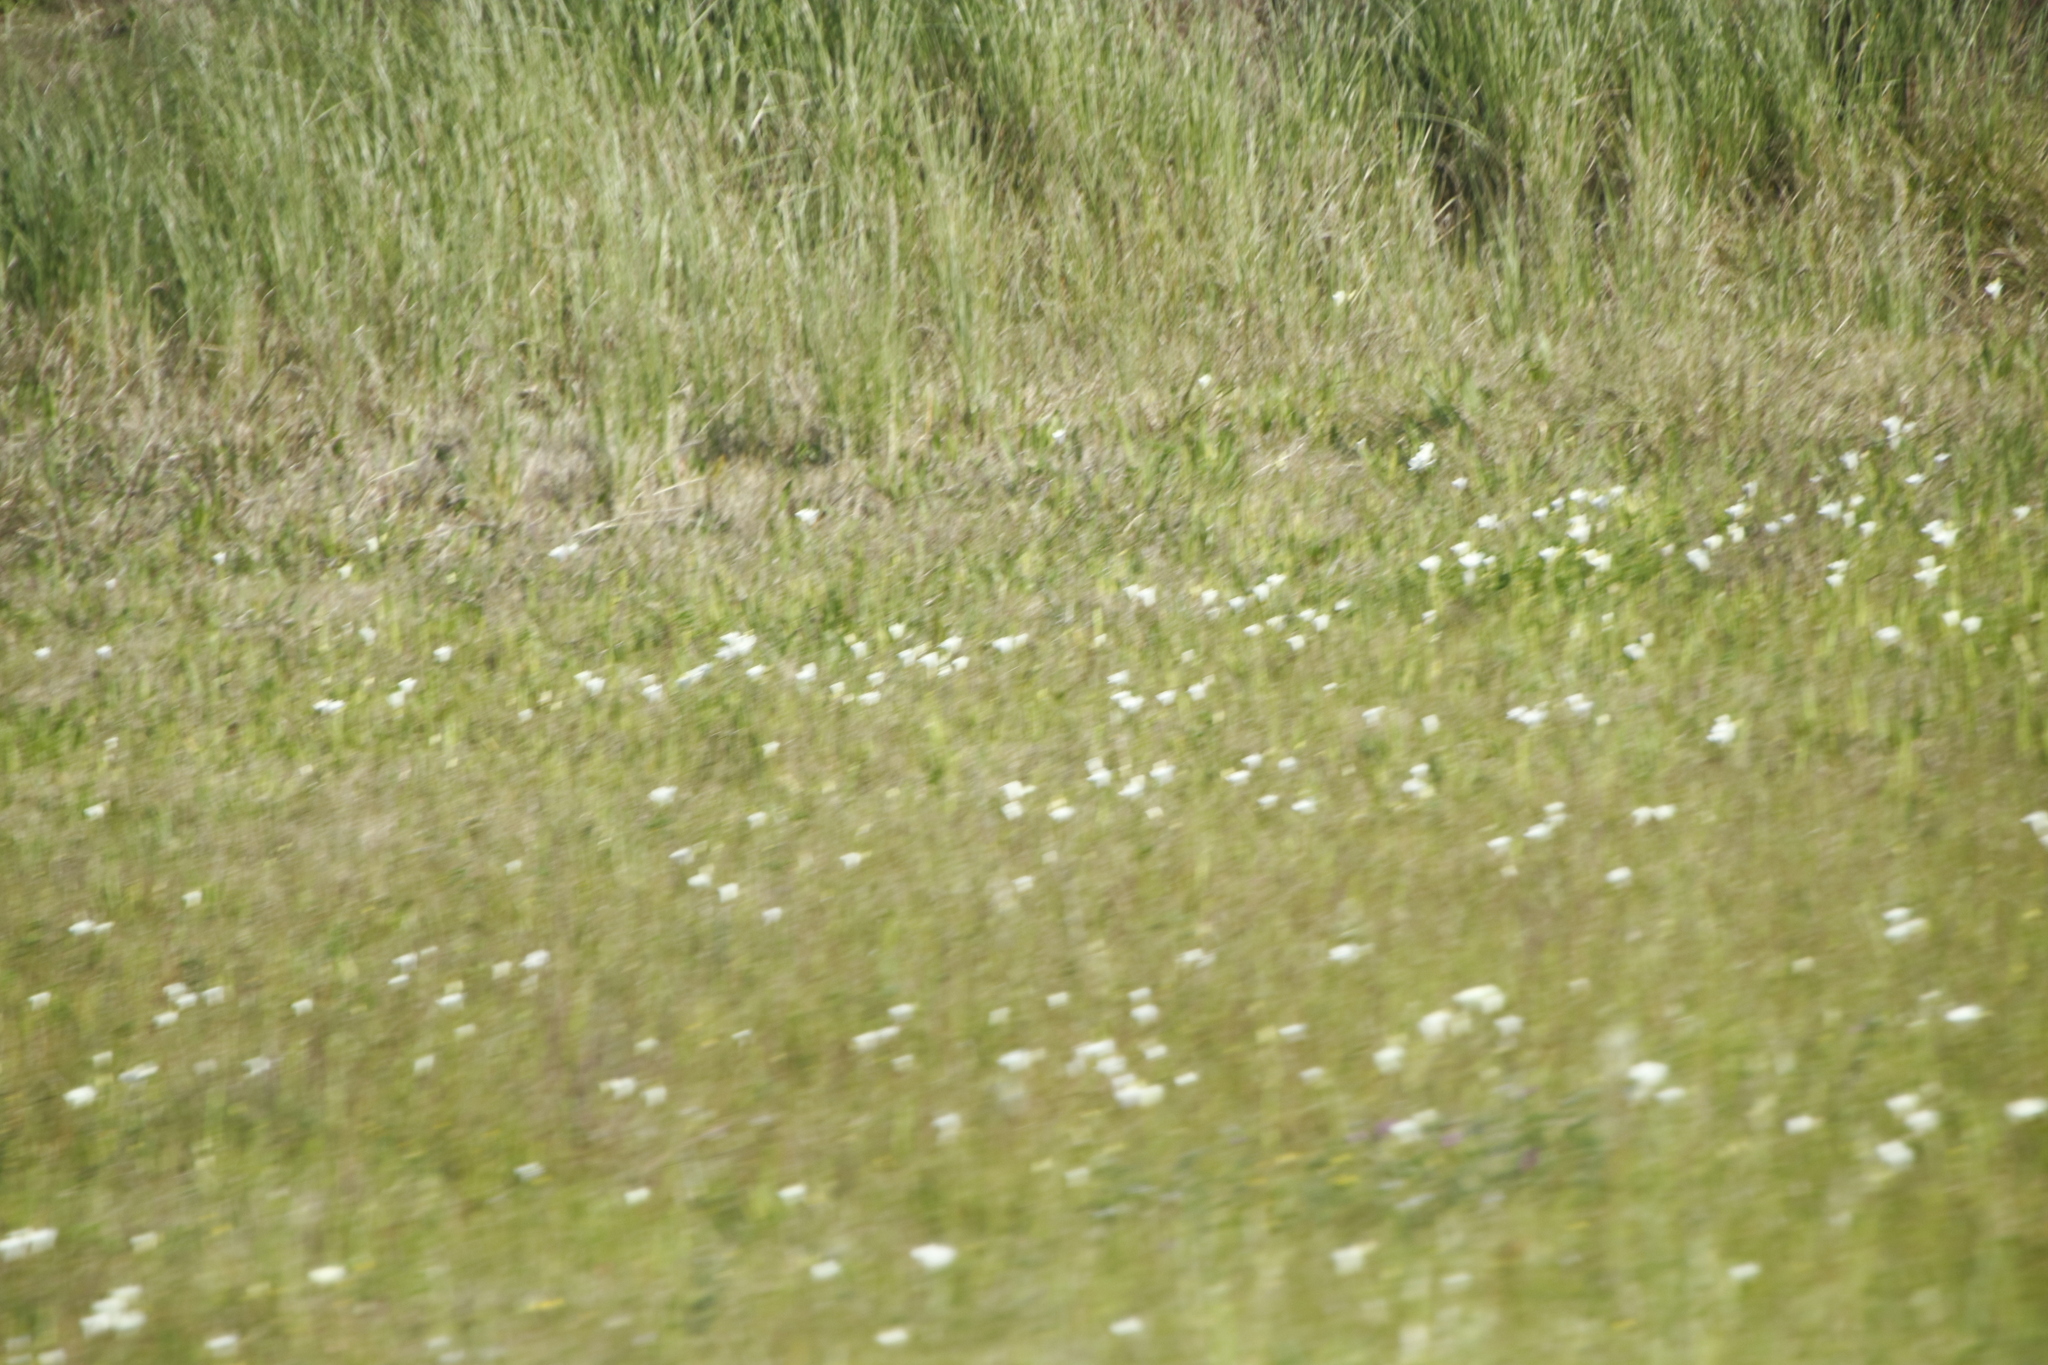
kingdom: Plantae
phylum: Tracheophyta
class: Liliopsida
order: Asparagales
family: Iridaceae
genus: Sparaxis
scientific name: Sparaxis bulbifera
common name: Harlequin-flower
